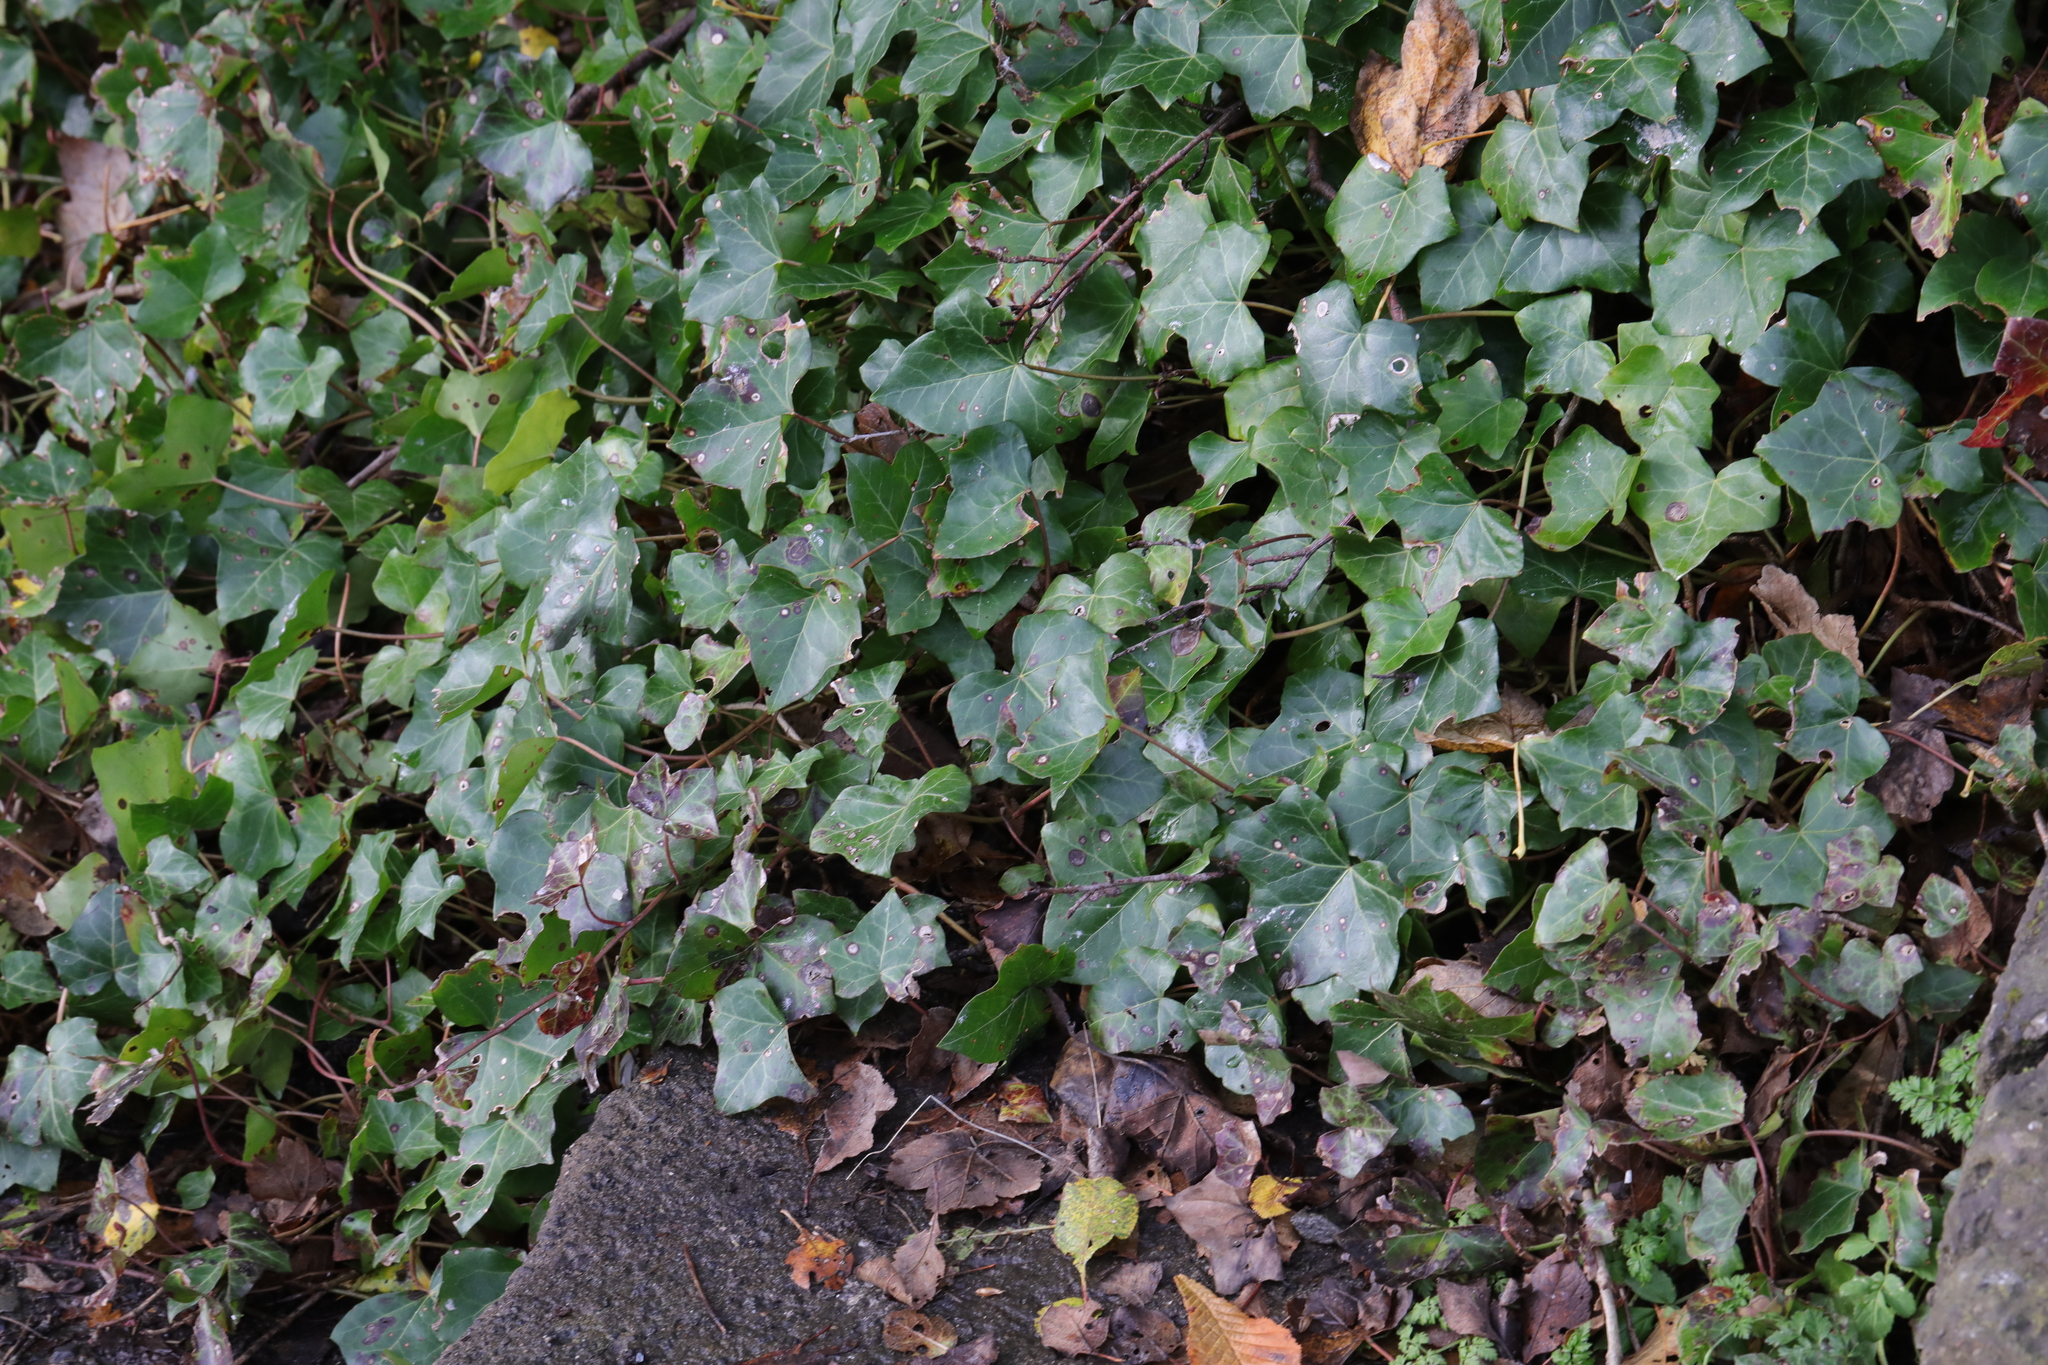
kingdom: Plantae
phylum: Tracheophyta
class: Magnoliopsida
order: Apiales
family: Araliaceae
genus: Hedera
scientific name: Hedera helix
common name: Ivy
